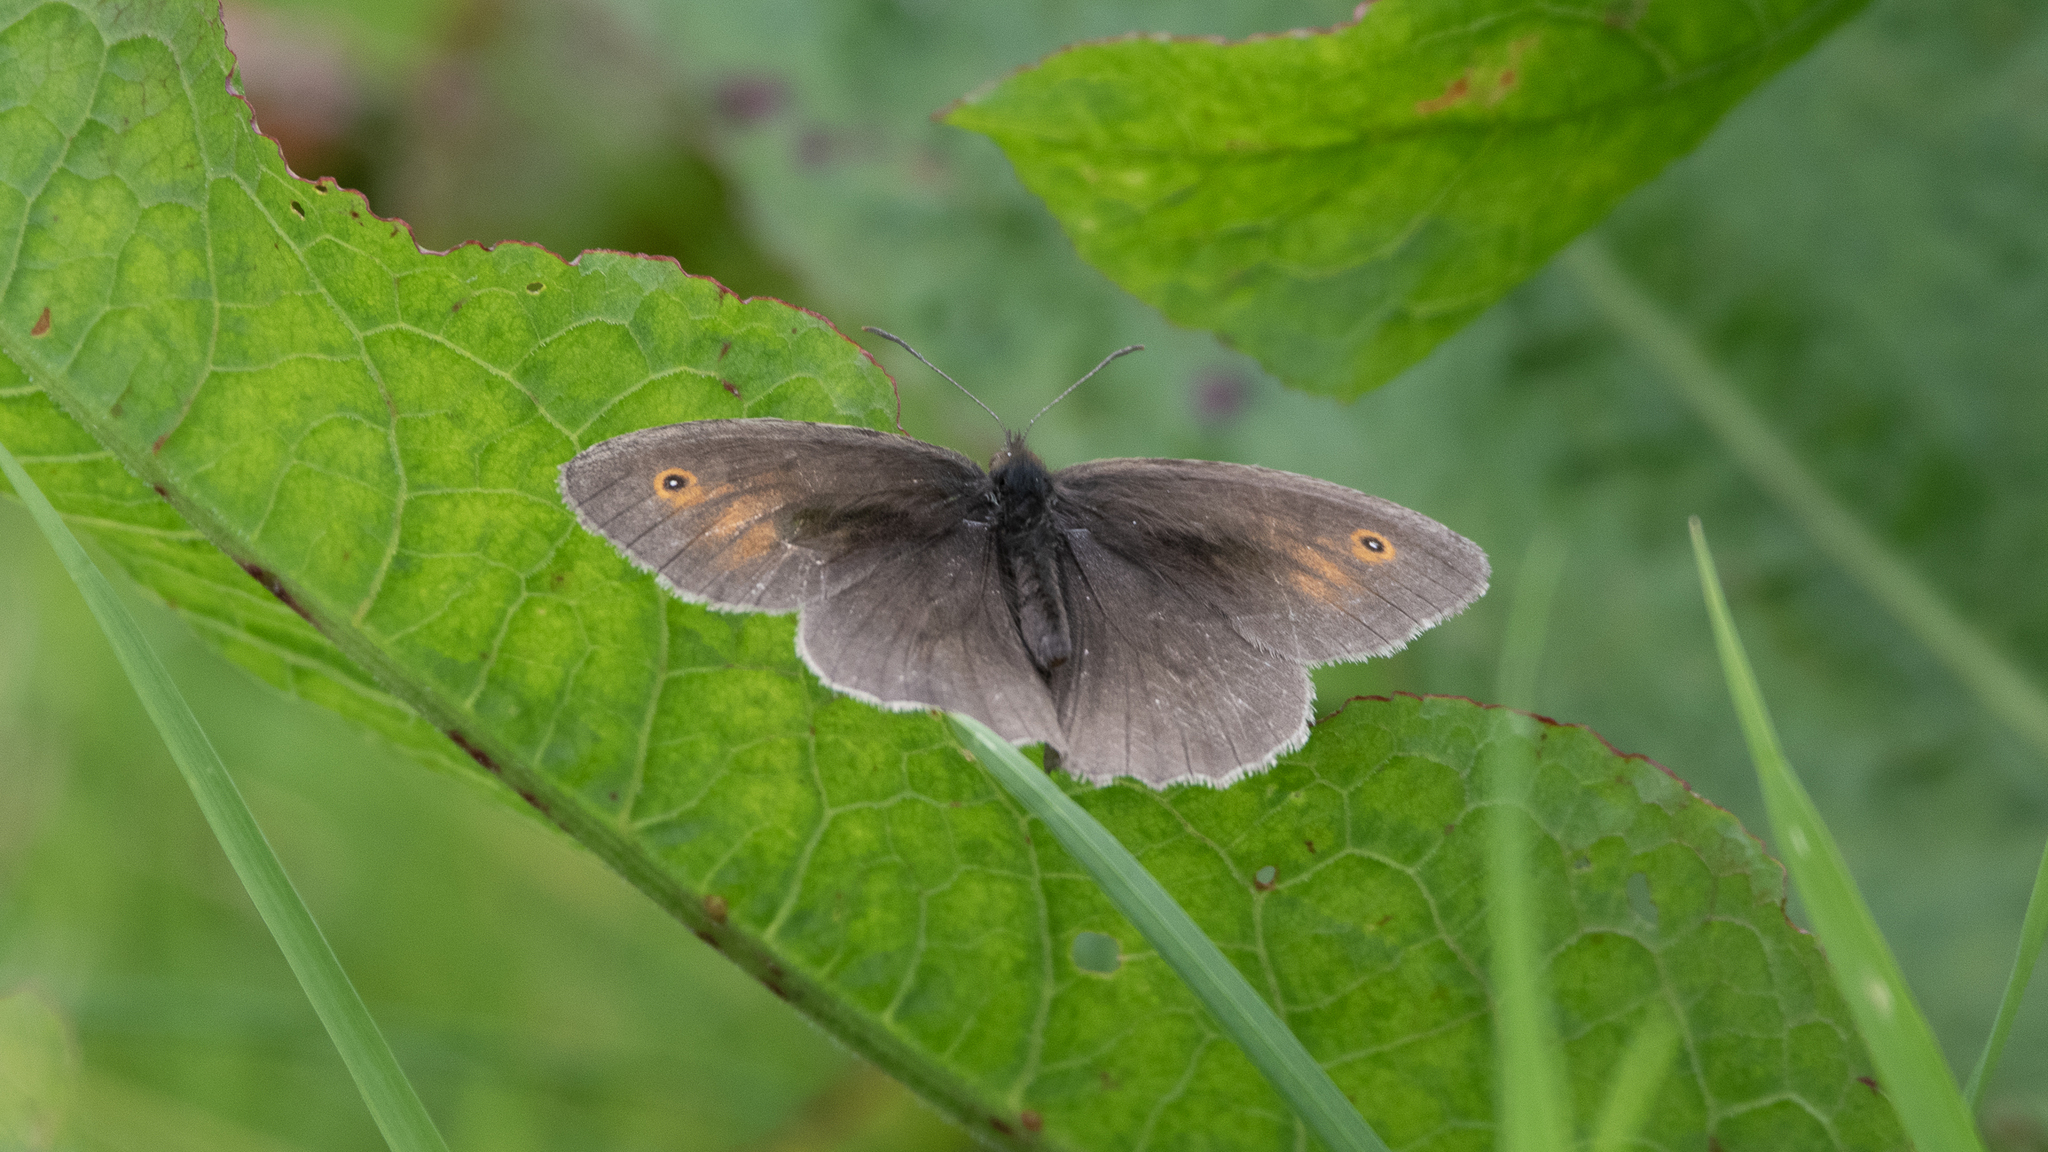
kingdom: Animalia
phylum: Arthropoda
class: Insecta
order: Lepidoptera
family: Nymphalidae
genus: Maniola
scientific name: Maniola jurtina
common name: Meadow brown
